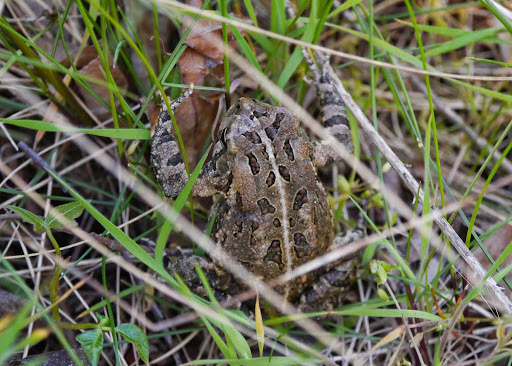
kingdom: Animalia
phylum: Chordata
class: Amphibia
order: Anura
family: Bufonidae
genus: Anaxyrus
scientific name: Anaxyrus fowleri
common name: Fowler's toad
